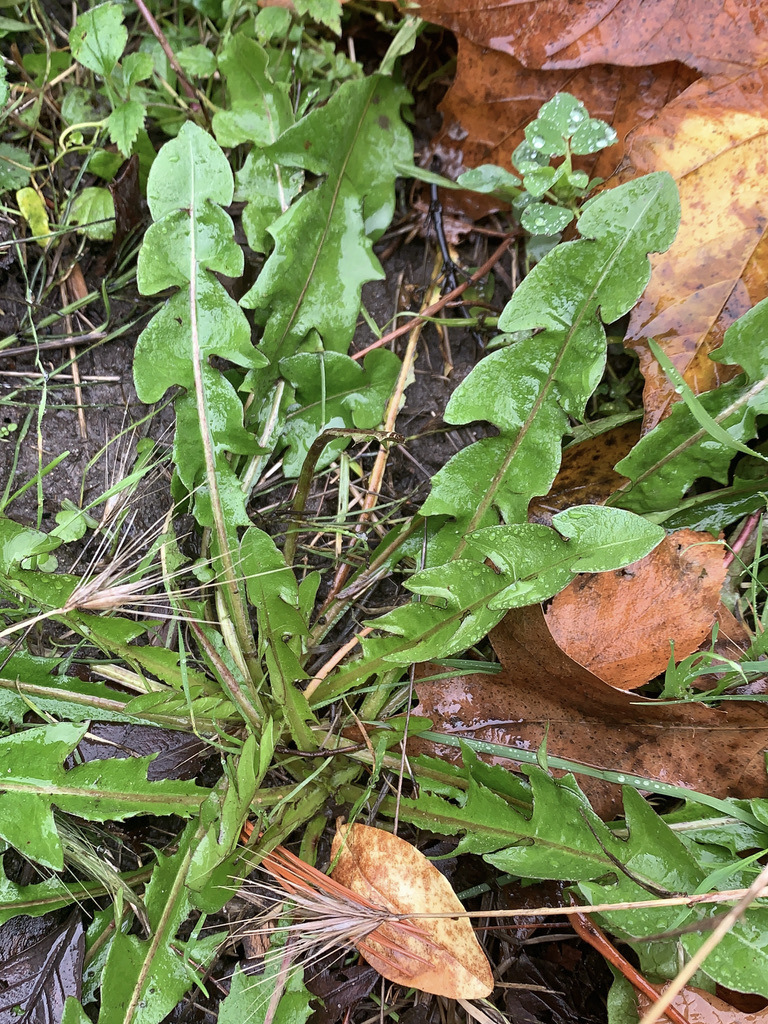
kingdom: Plantae
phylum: Tracheophyta
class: Magnoliopsida
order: Asterales
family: Asteraceae
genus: Taraxacum
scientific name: Taraxacum officinale
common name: Common dandelion
